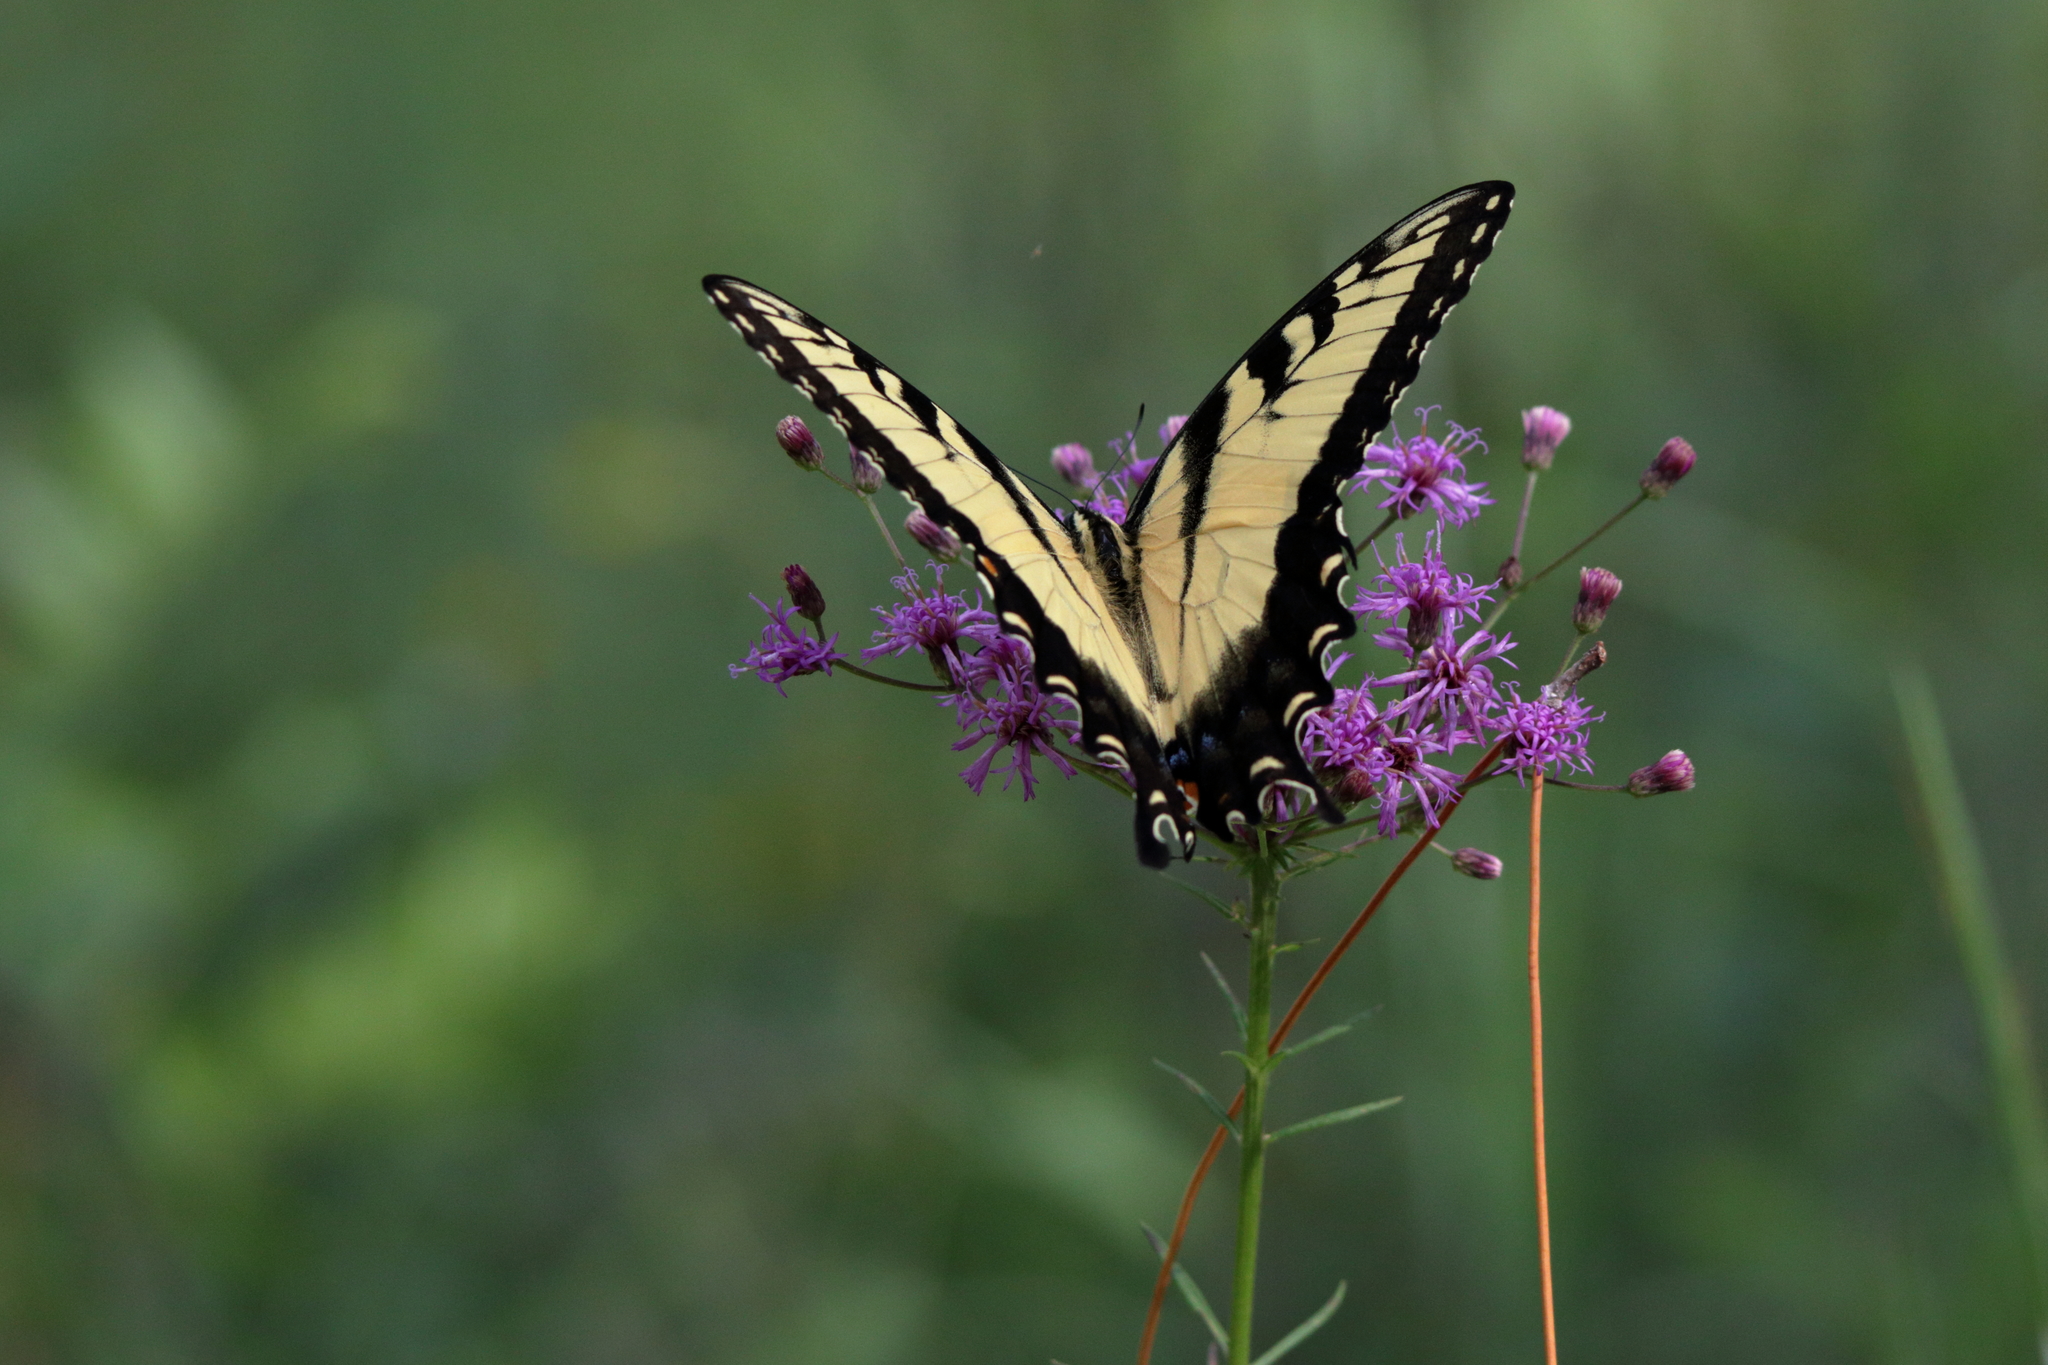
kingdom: Animalia
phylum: Arthropoda
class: Insecta
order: Lepidoptera
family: Papilionidae
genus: Papilio
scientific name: Papilio glaucus
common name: Tiger swallowtail
